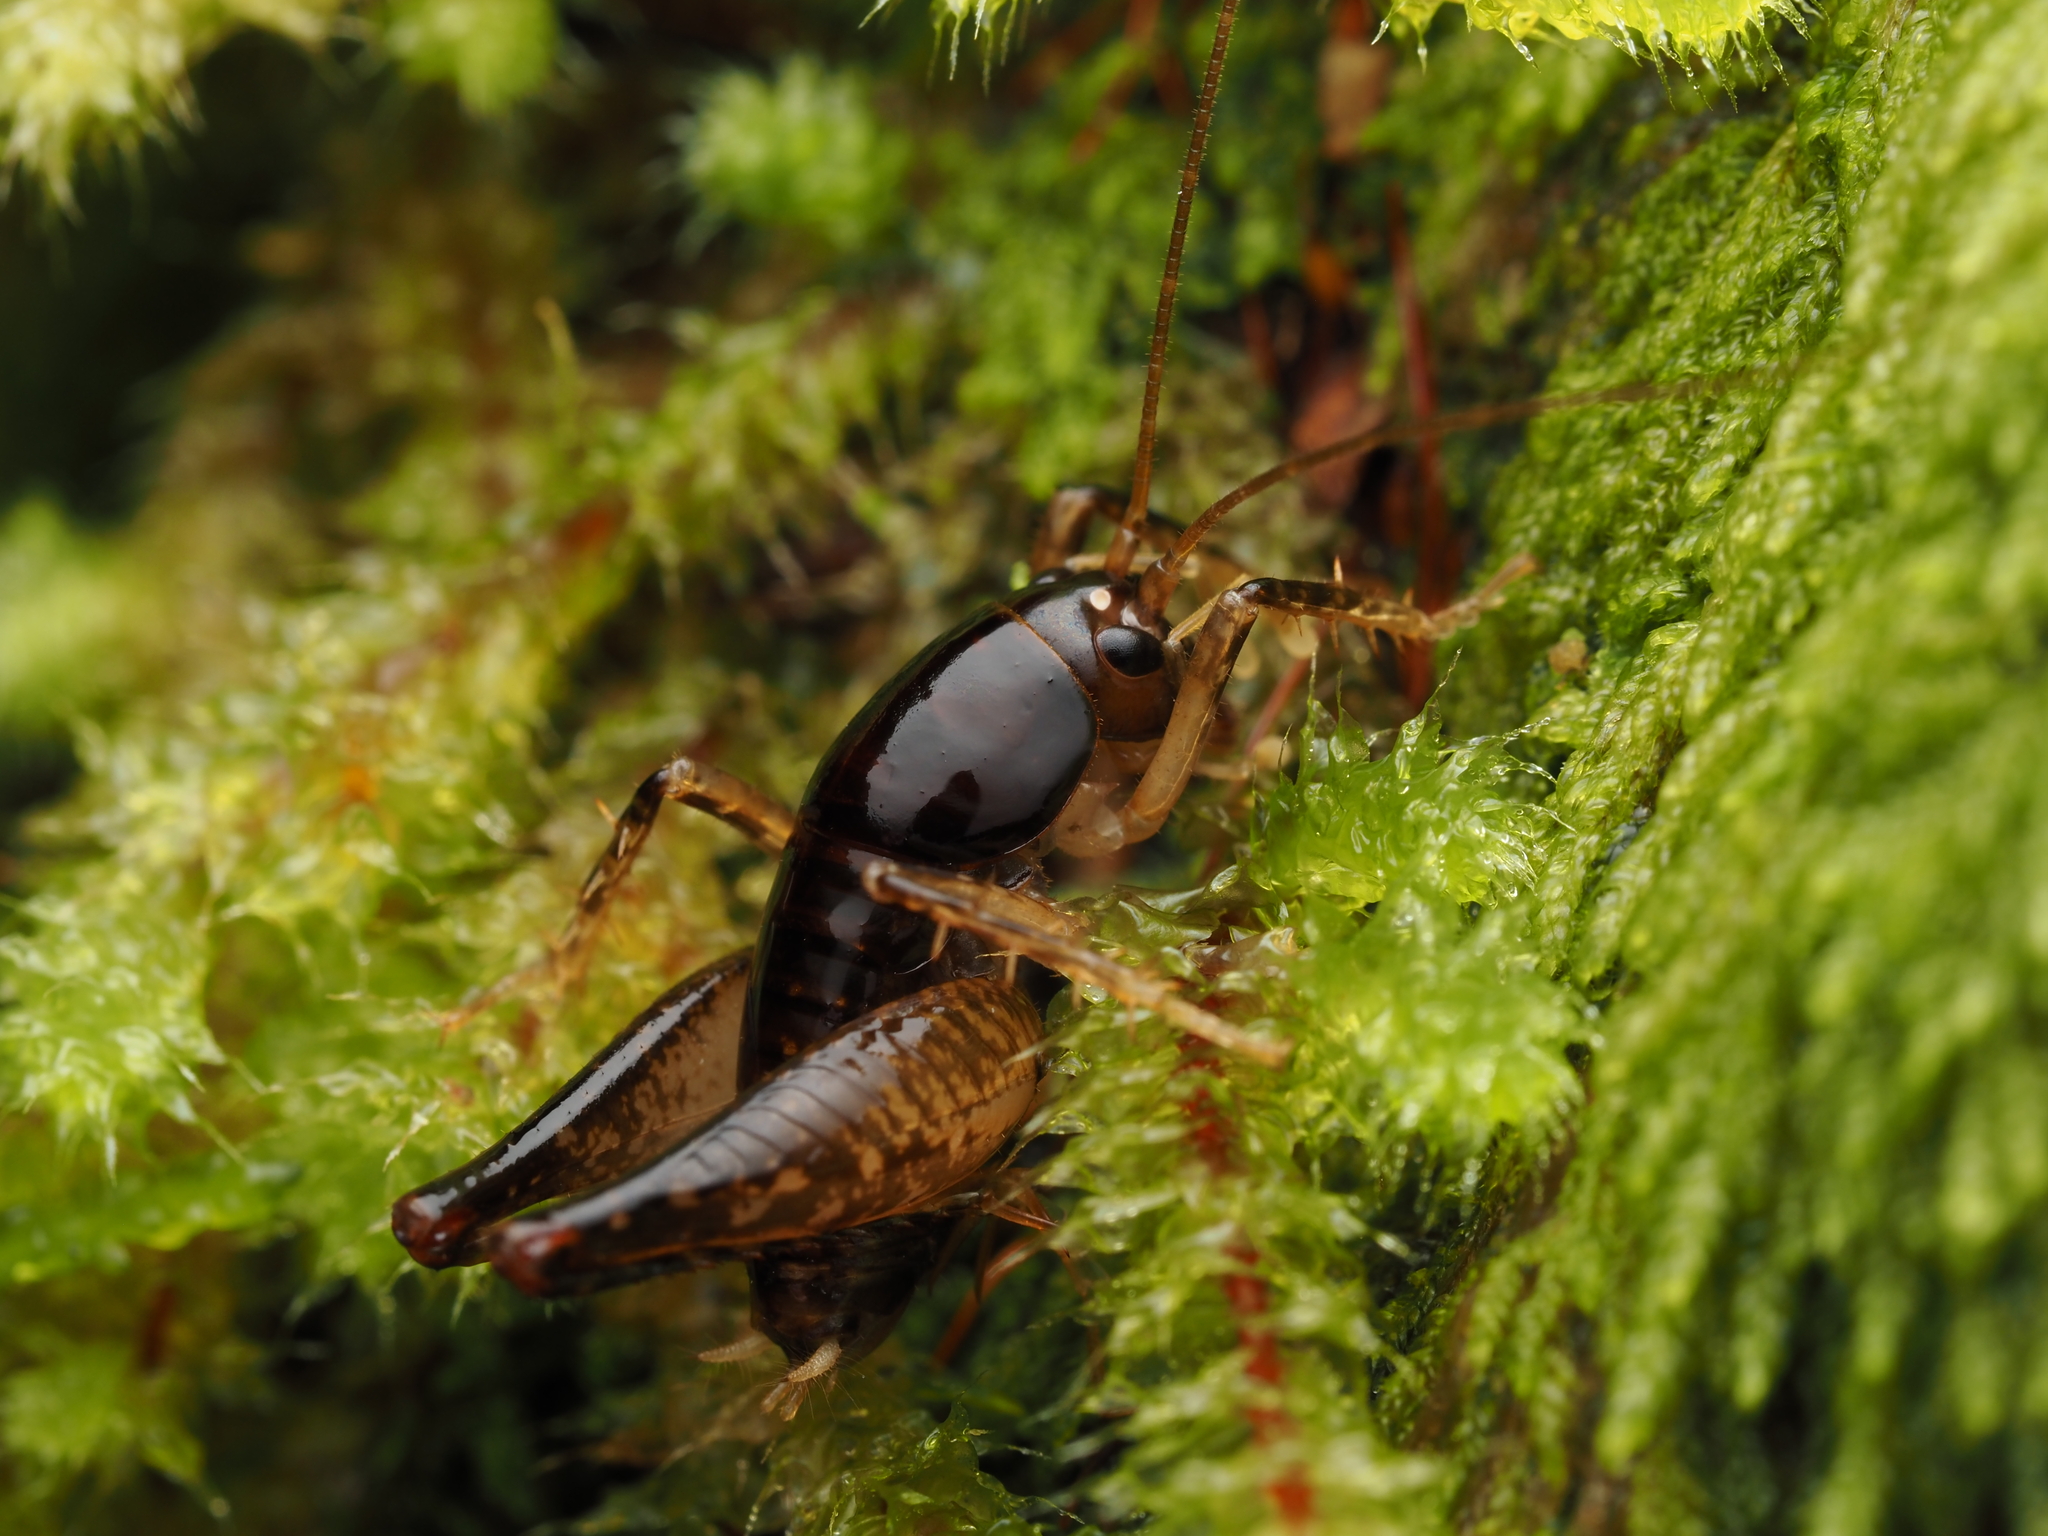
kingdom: Animalia
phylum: Arthropoda
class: Insecta
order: Orthoptera
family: Anostostomatidae
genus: Hemiandrus
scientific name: Hemiandrus nox
